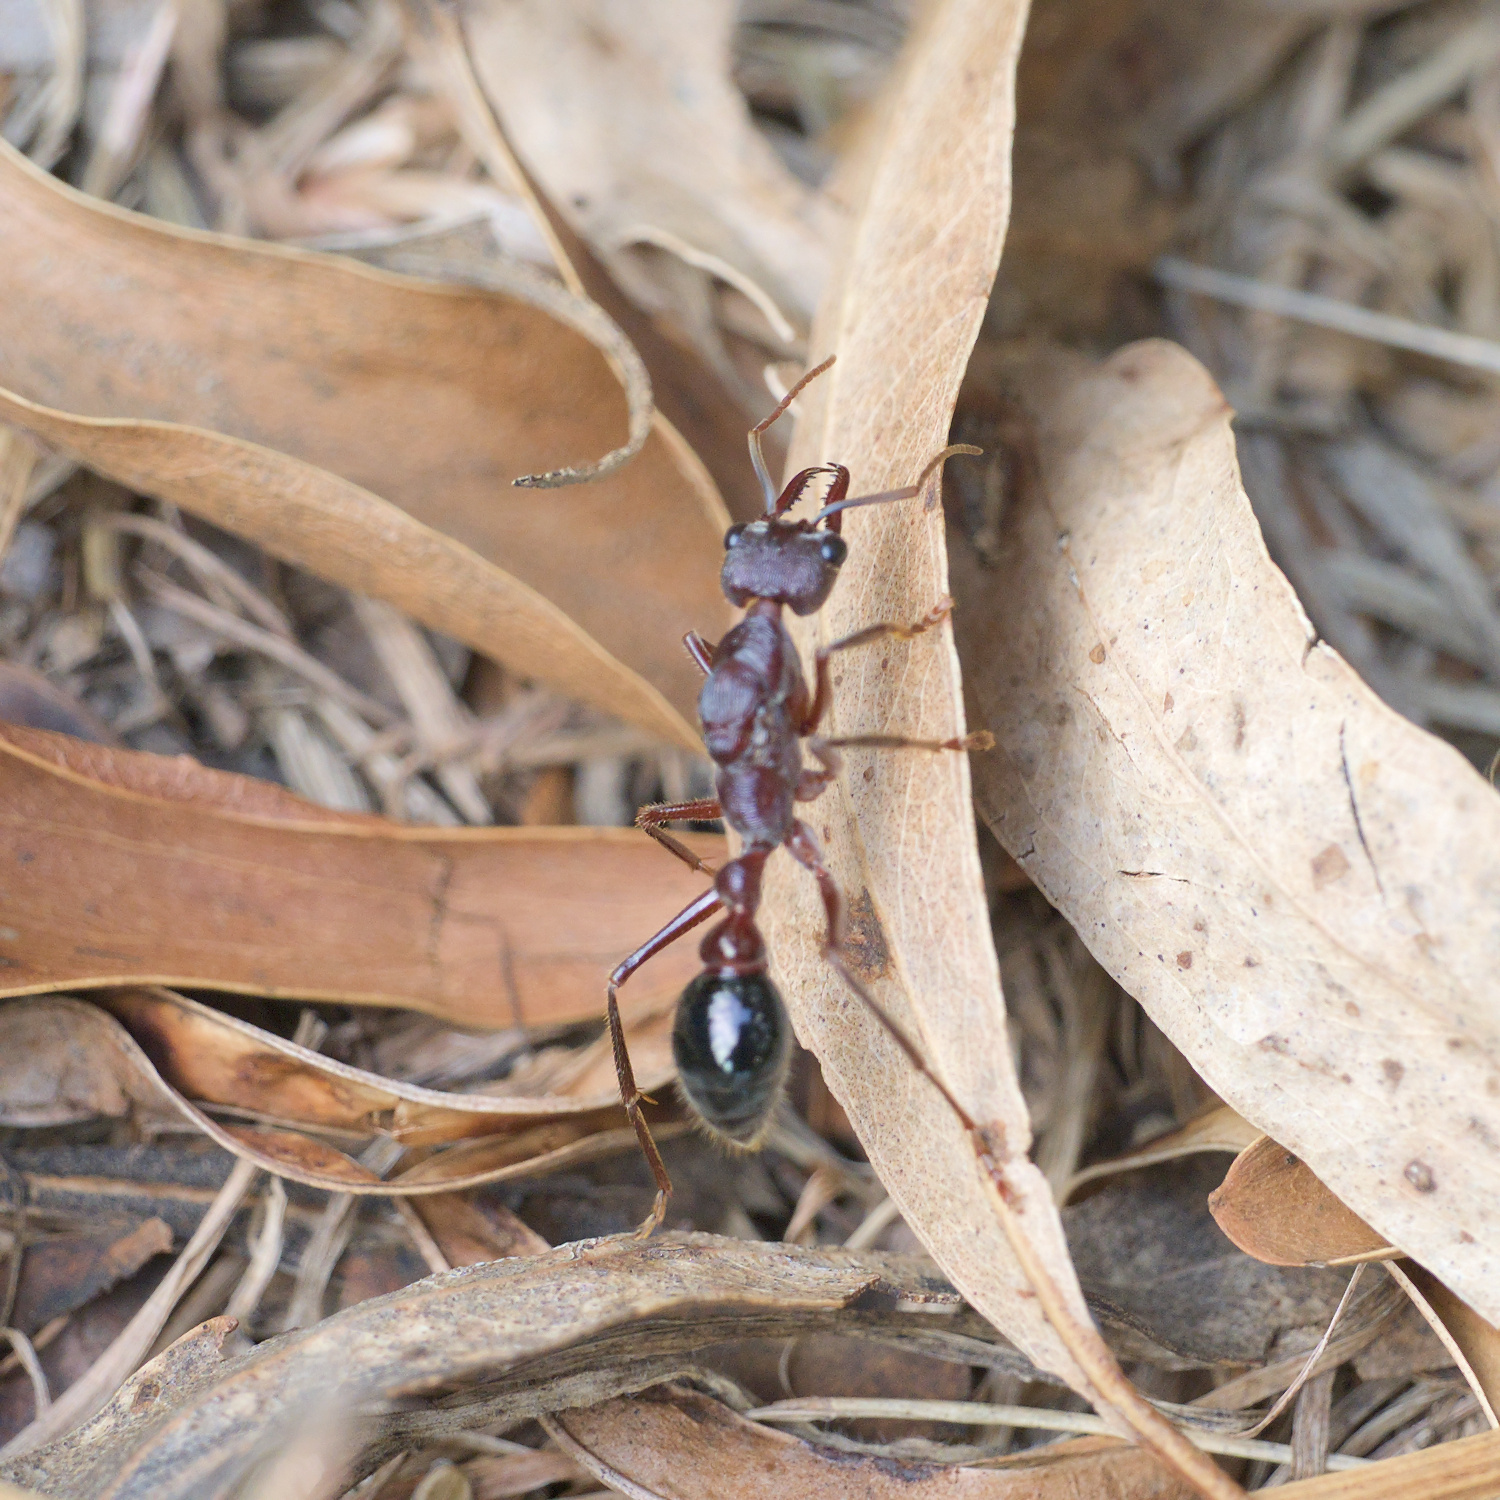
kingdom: Animalia
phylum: Arthropoda
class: Insecta
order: Hymenoptera
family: Formicidae
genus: Myrmecia
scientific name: Myrmecia forficata
